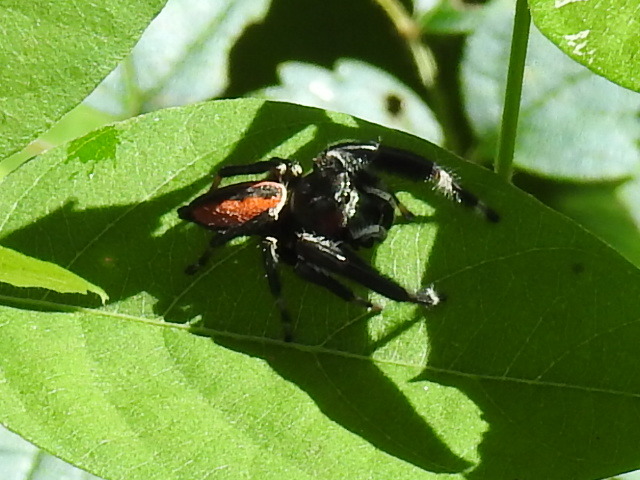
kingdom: Animalia
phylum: Arthropoda
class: Arachnida
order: Araneae
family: Salticidae
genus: Phidippus
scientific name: Phidippus clarus
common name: Brilliant jumping spider
